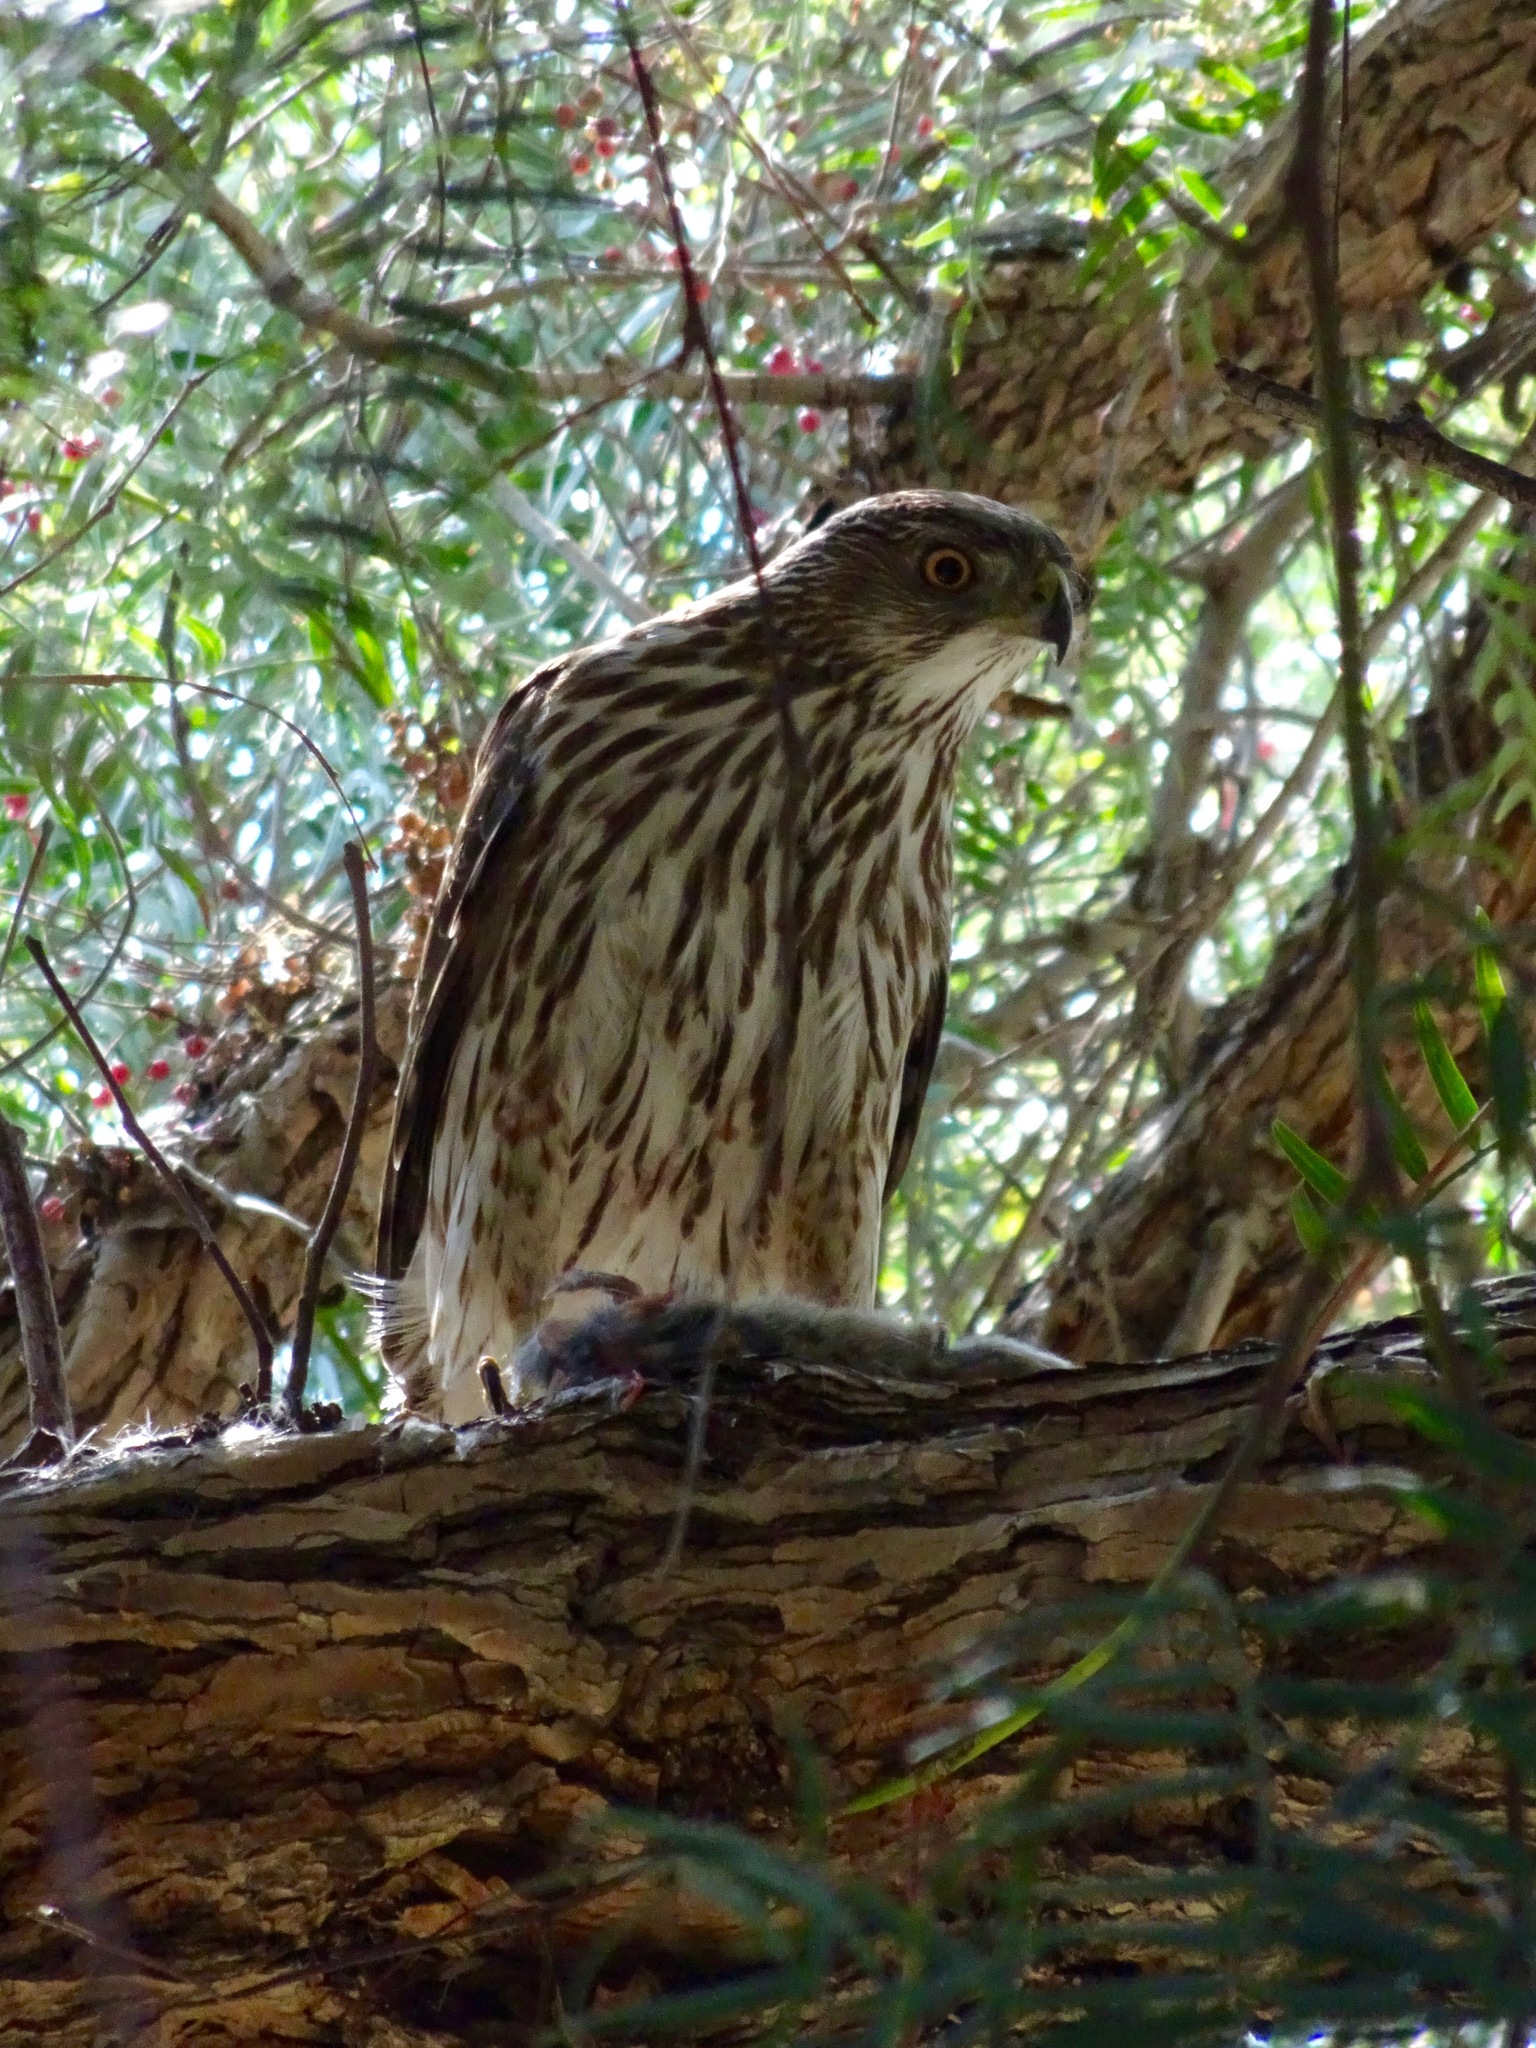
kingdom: Animalia
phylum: Chordata
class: Aves
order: Accipitriformes
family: Accipitridae
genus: Accipiter
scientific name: Accipiter cooperii
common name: Cooper's hawk
